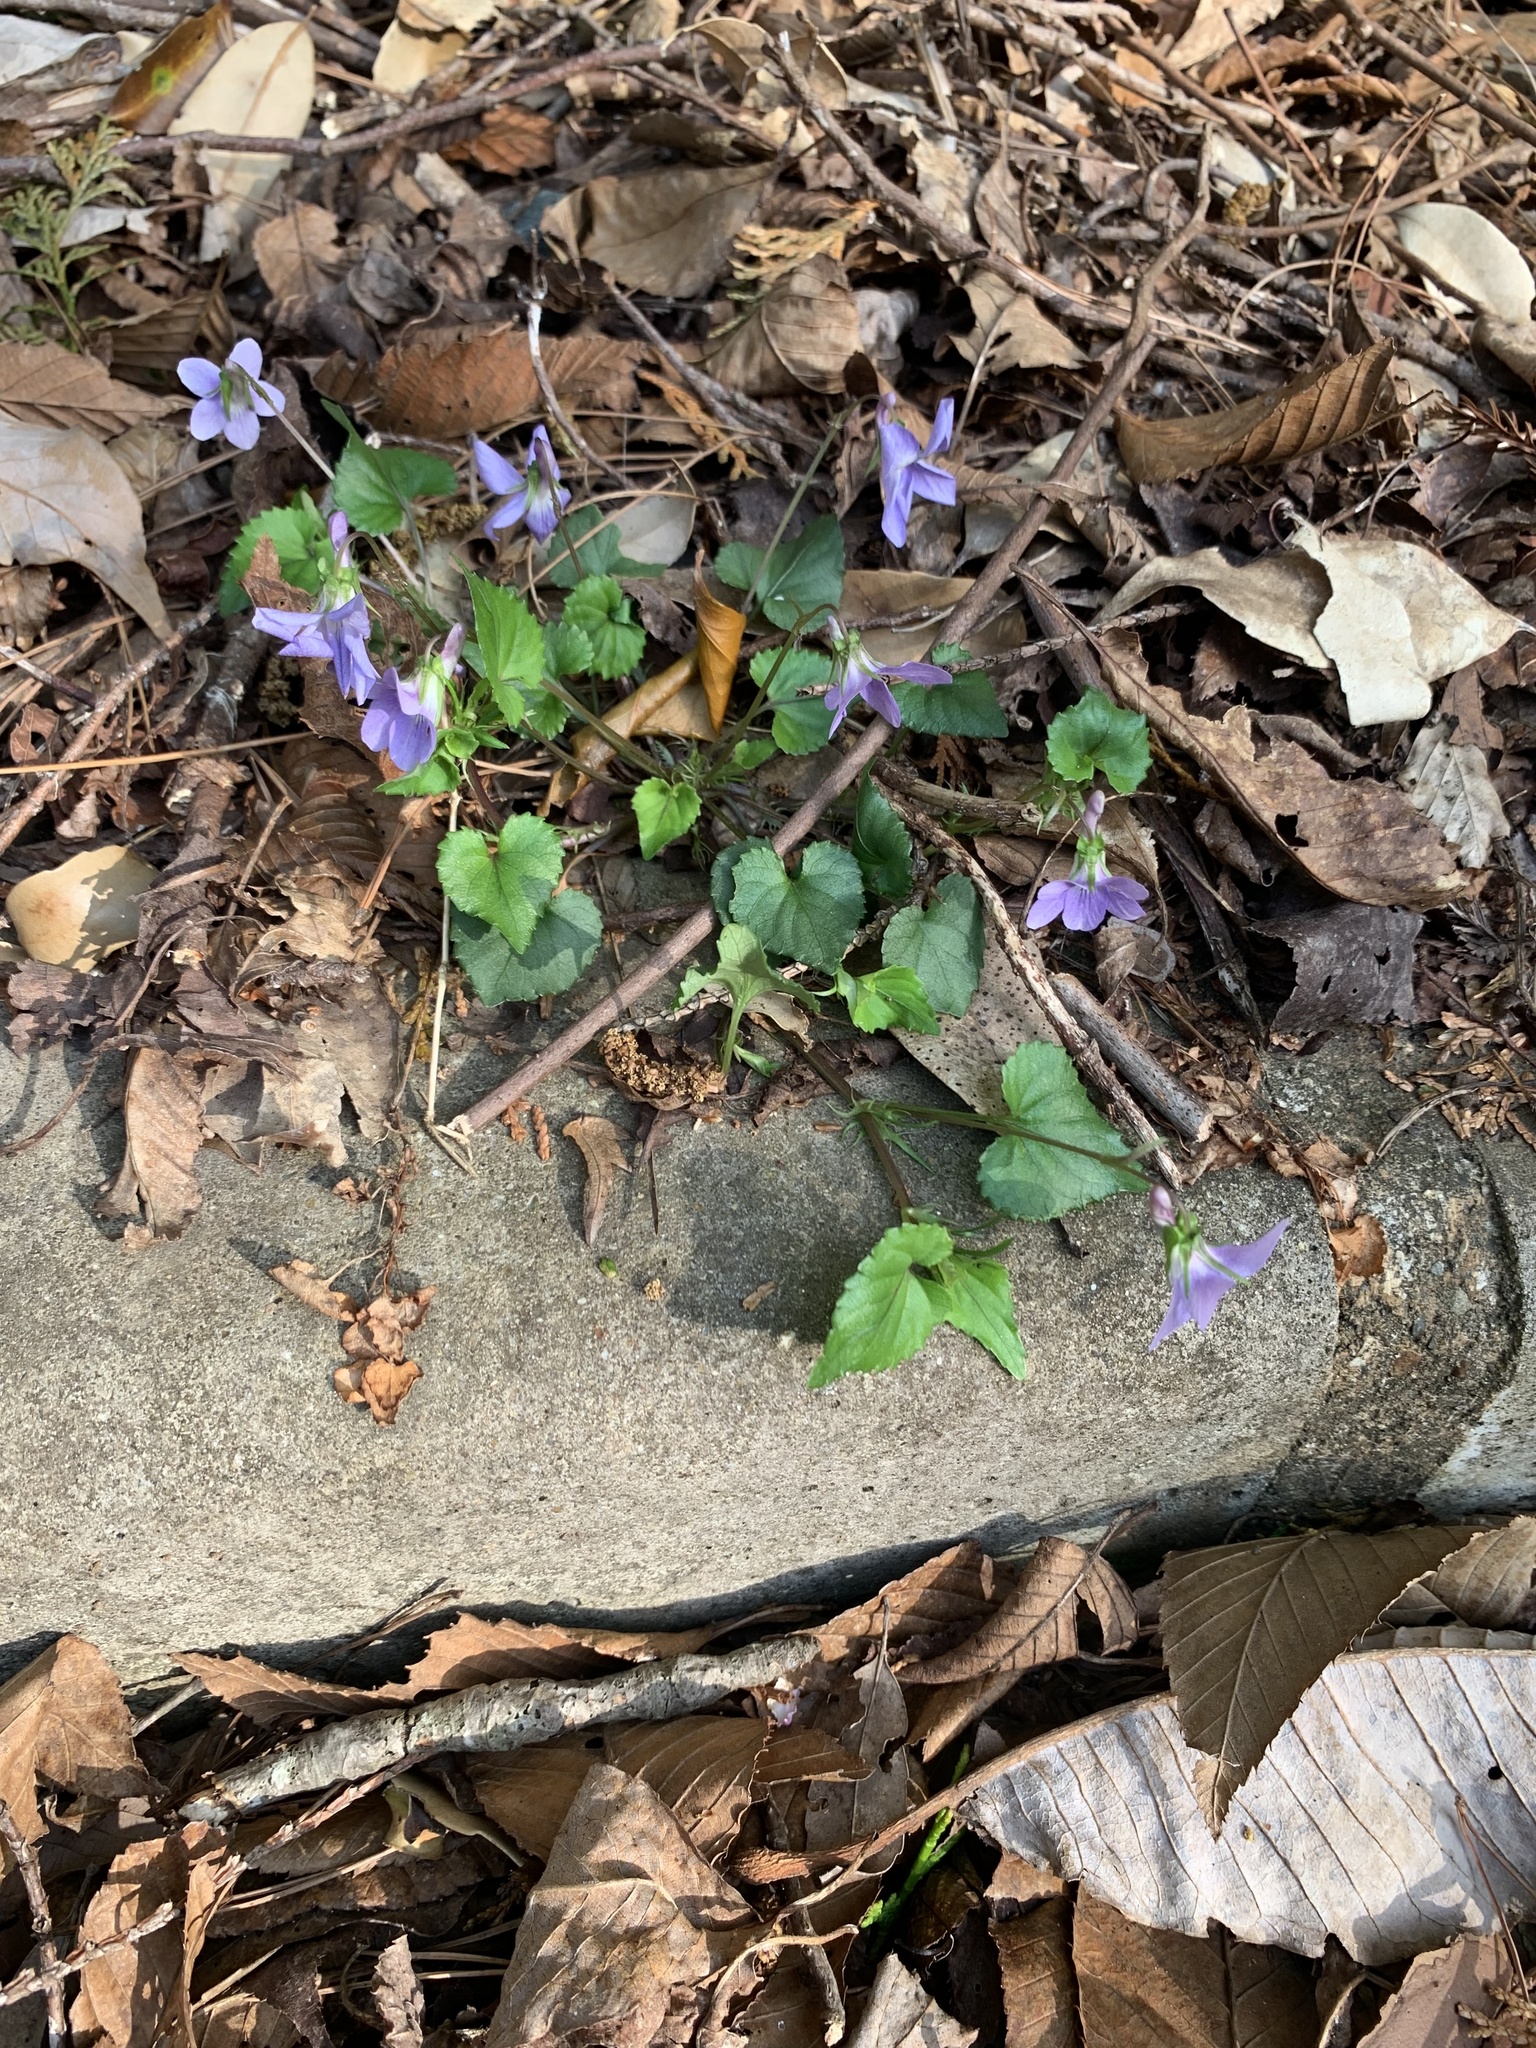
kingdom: Plantae
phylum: Tracheophyta
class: Magnoliopsida
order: Malpighiales
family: Violaceae
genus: Viola
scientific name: Viola grypoceras
